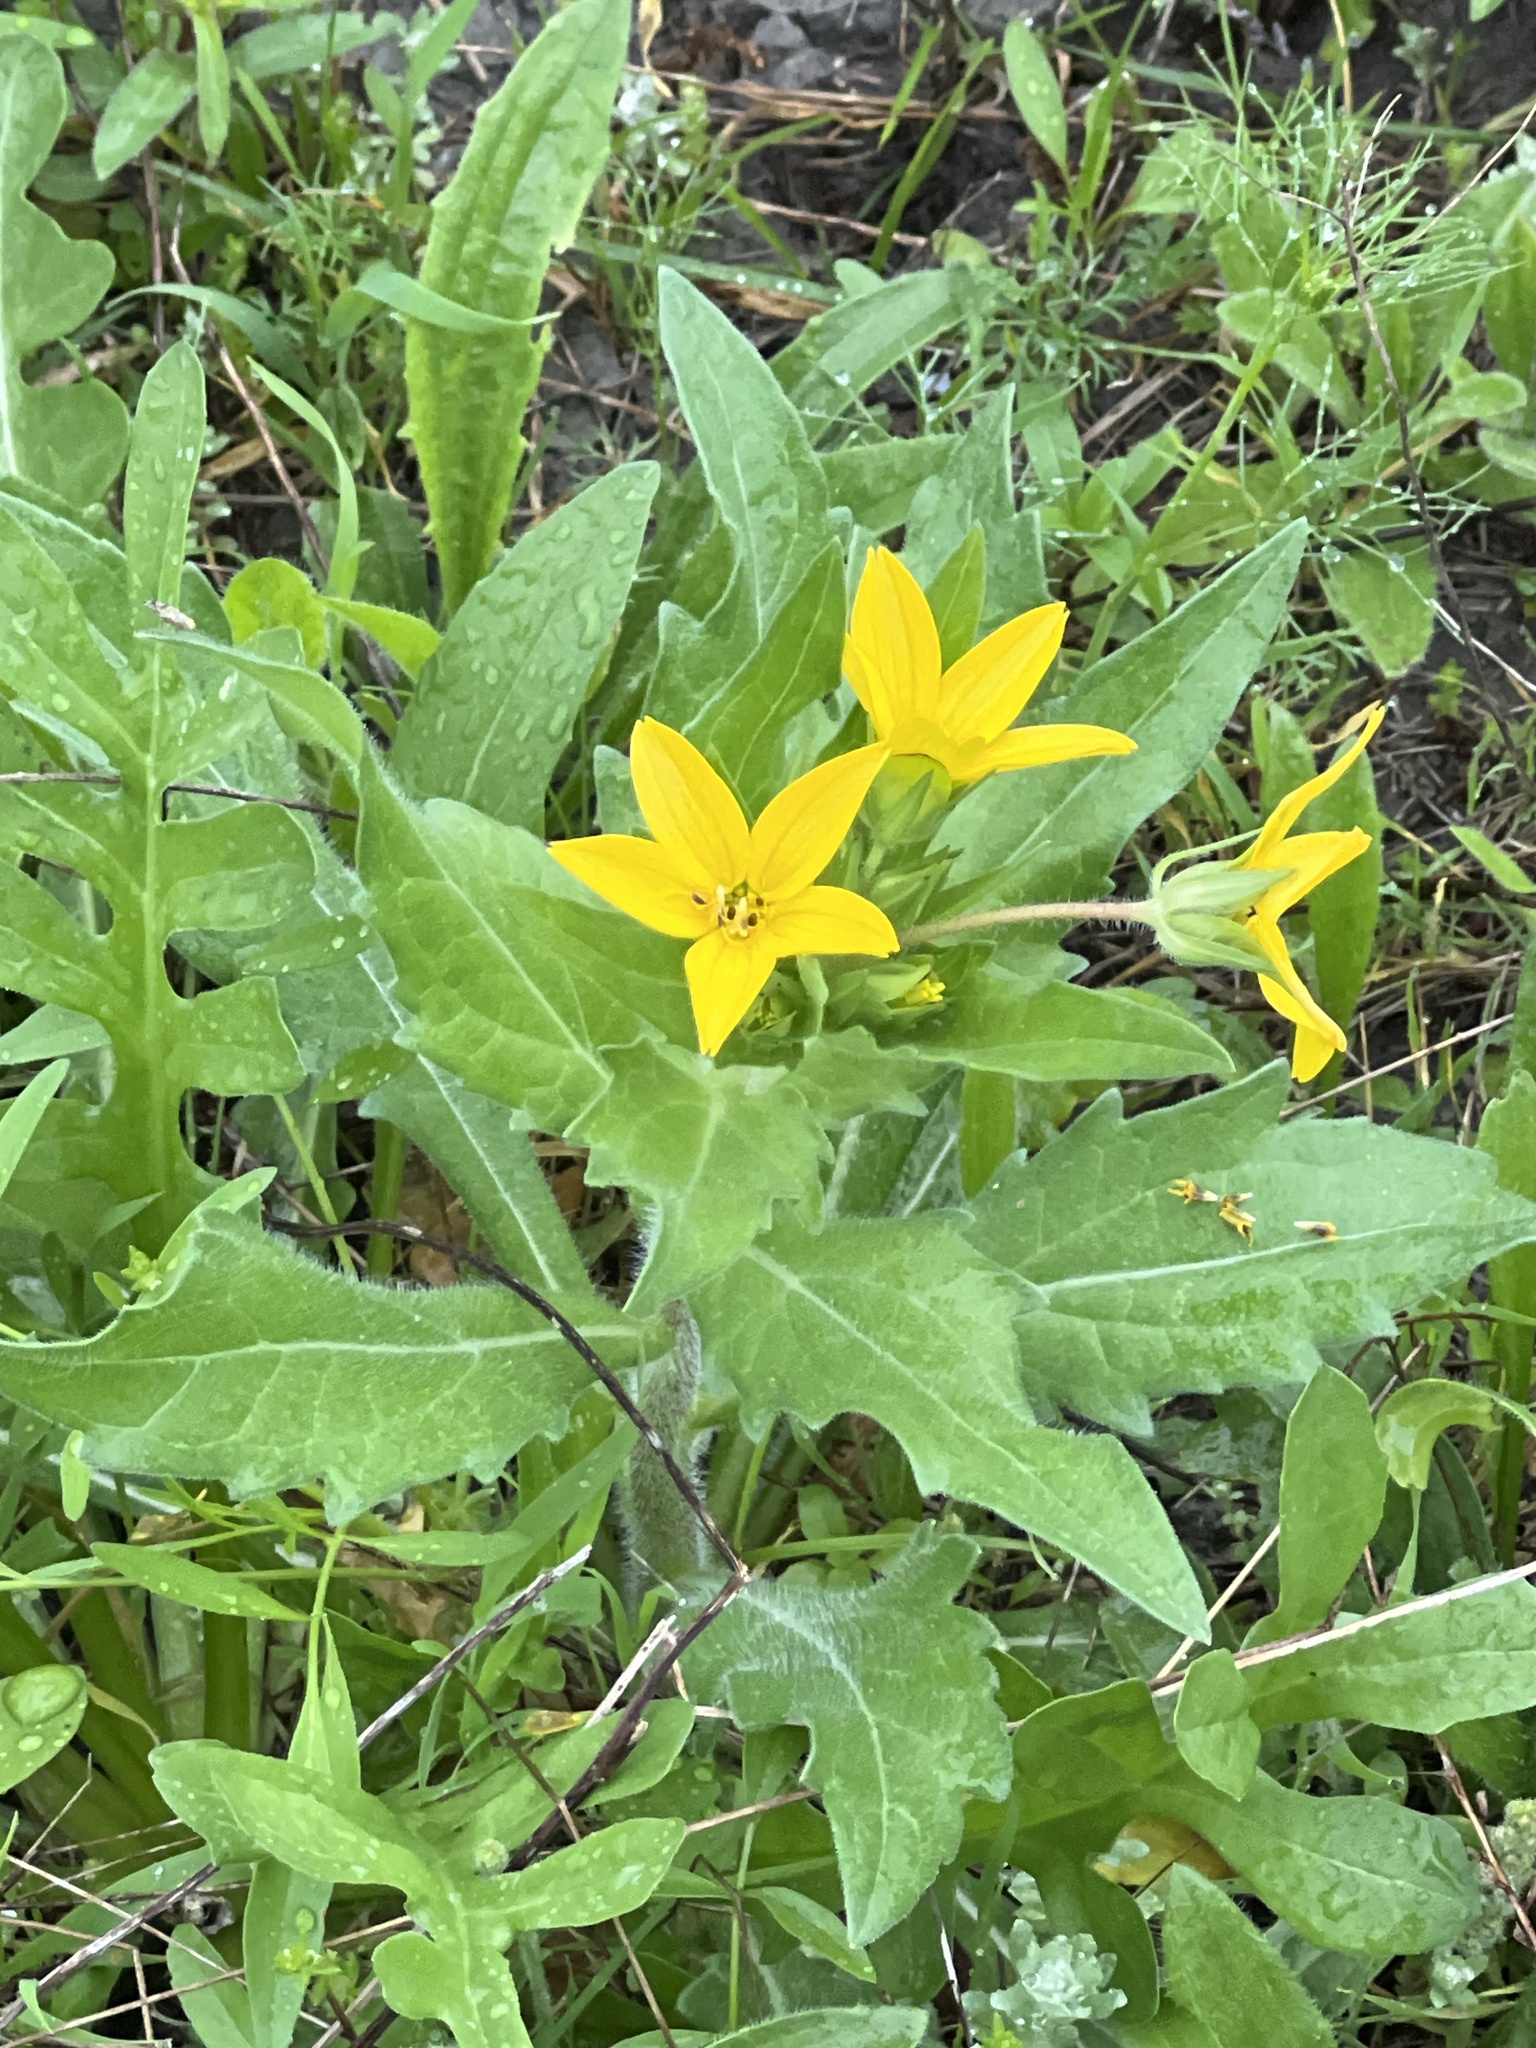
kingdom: Plantae
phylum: Tracheophyta
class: Magnoliopsida
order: Asterales
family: Asteraceae
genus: Lindheimera
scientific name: Lindheimera texana
